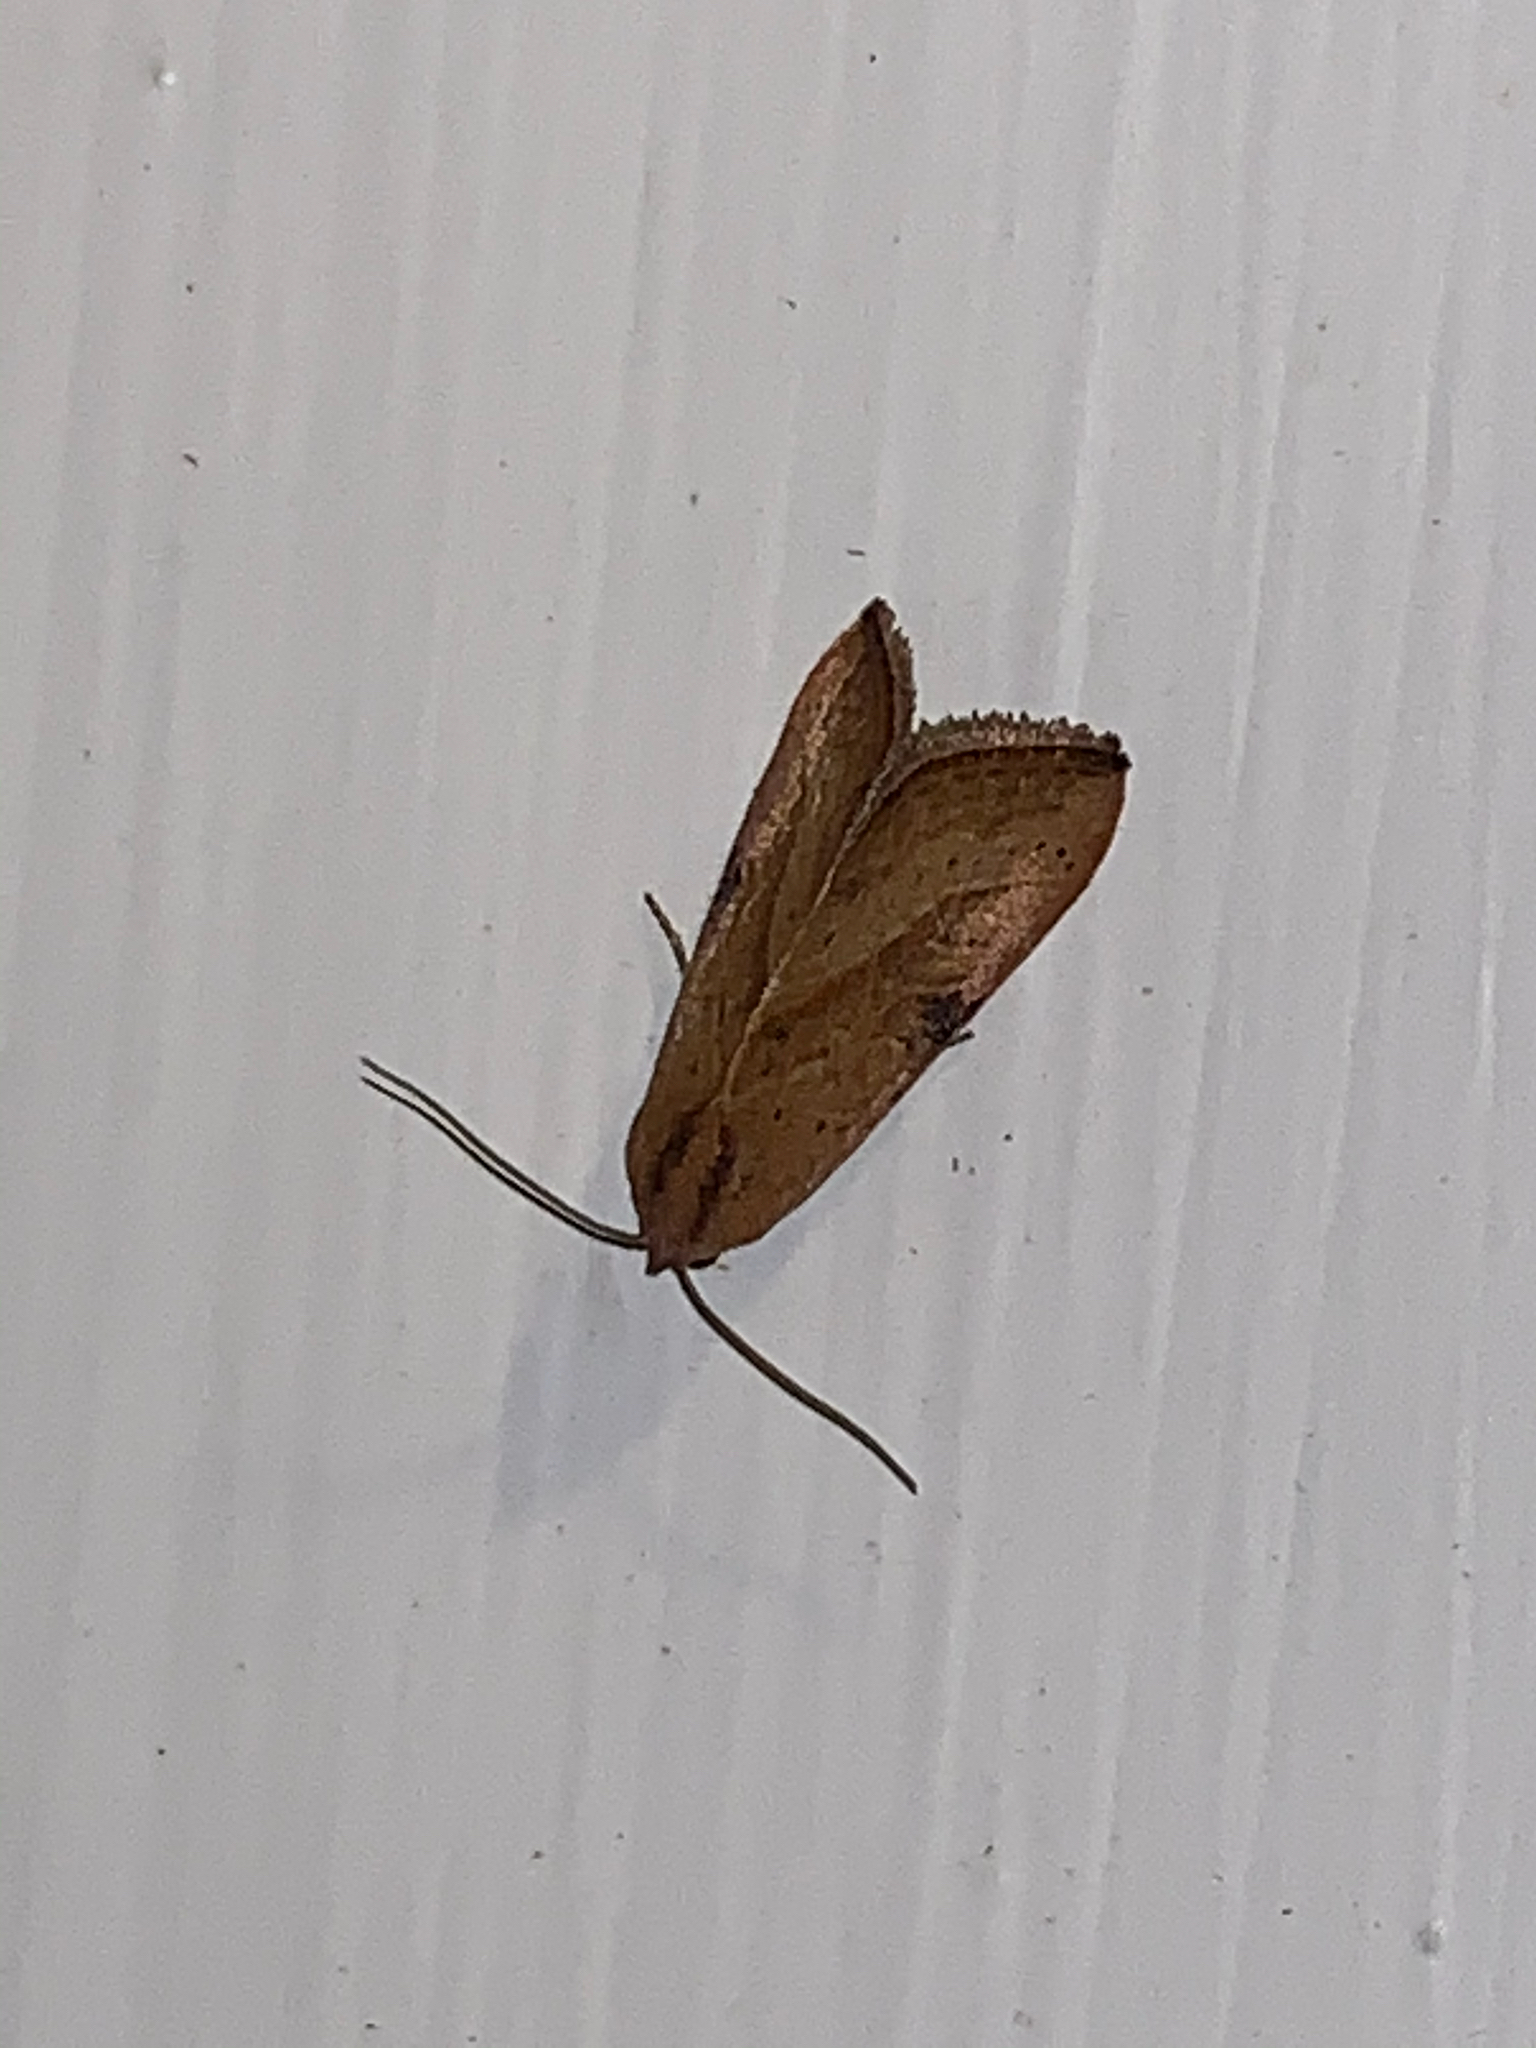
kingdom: Animalia
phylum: Arthropoda
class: Insecta
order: Lepidoptera
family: Noctuidae
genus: Galgula
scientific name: Galgula partita
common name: Wedgeling
